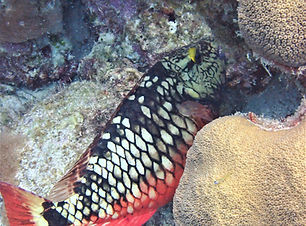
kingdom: Animalia
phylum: Chordata
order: Perciformes
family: Scaridae
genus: Sparisoma
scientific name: Sparisoma viride
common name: Stoplight parrotfish
